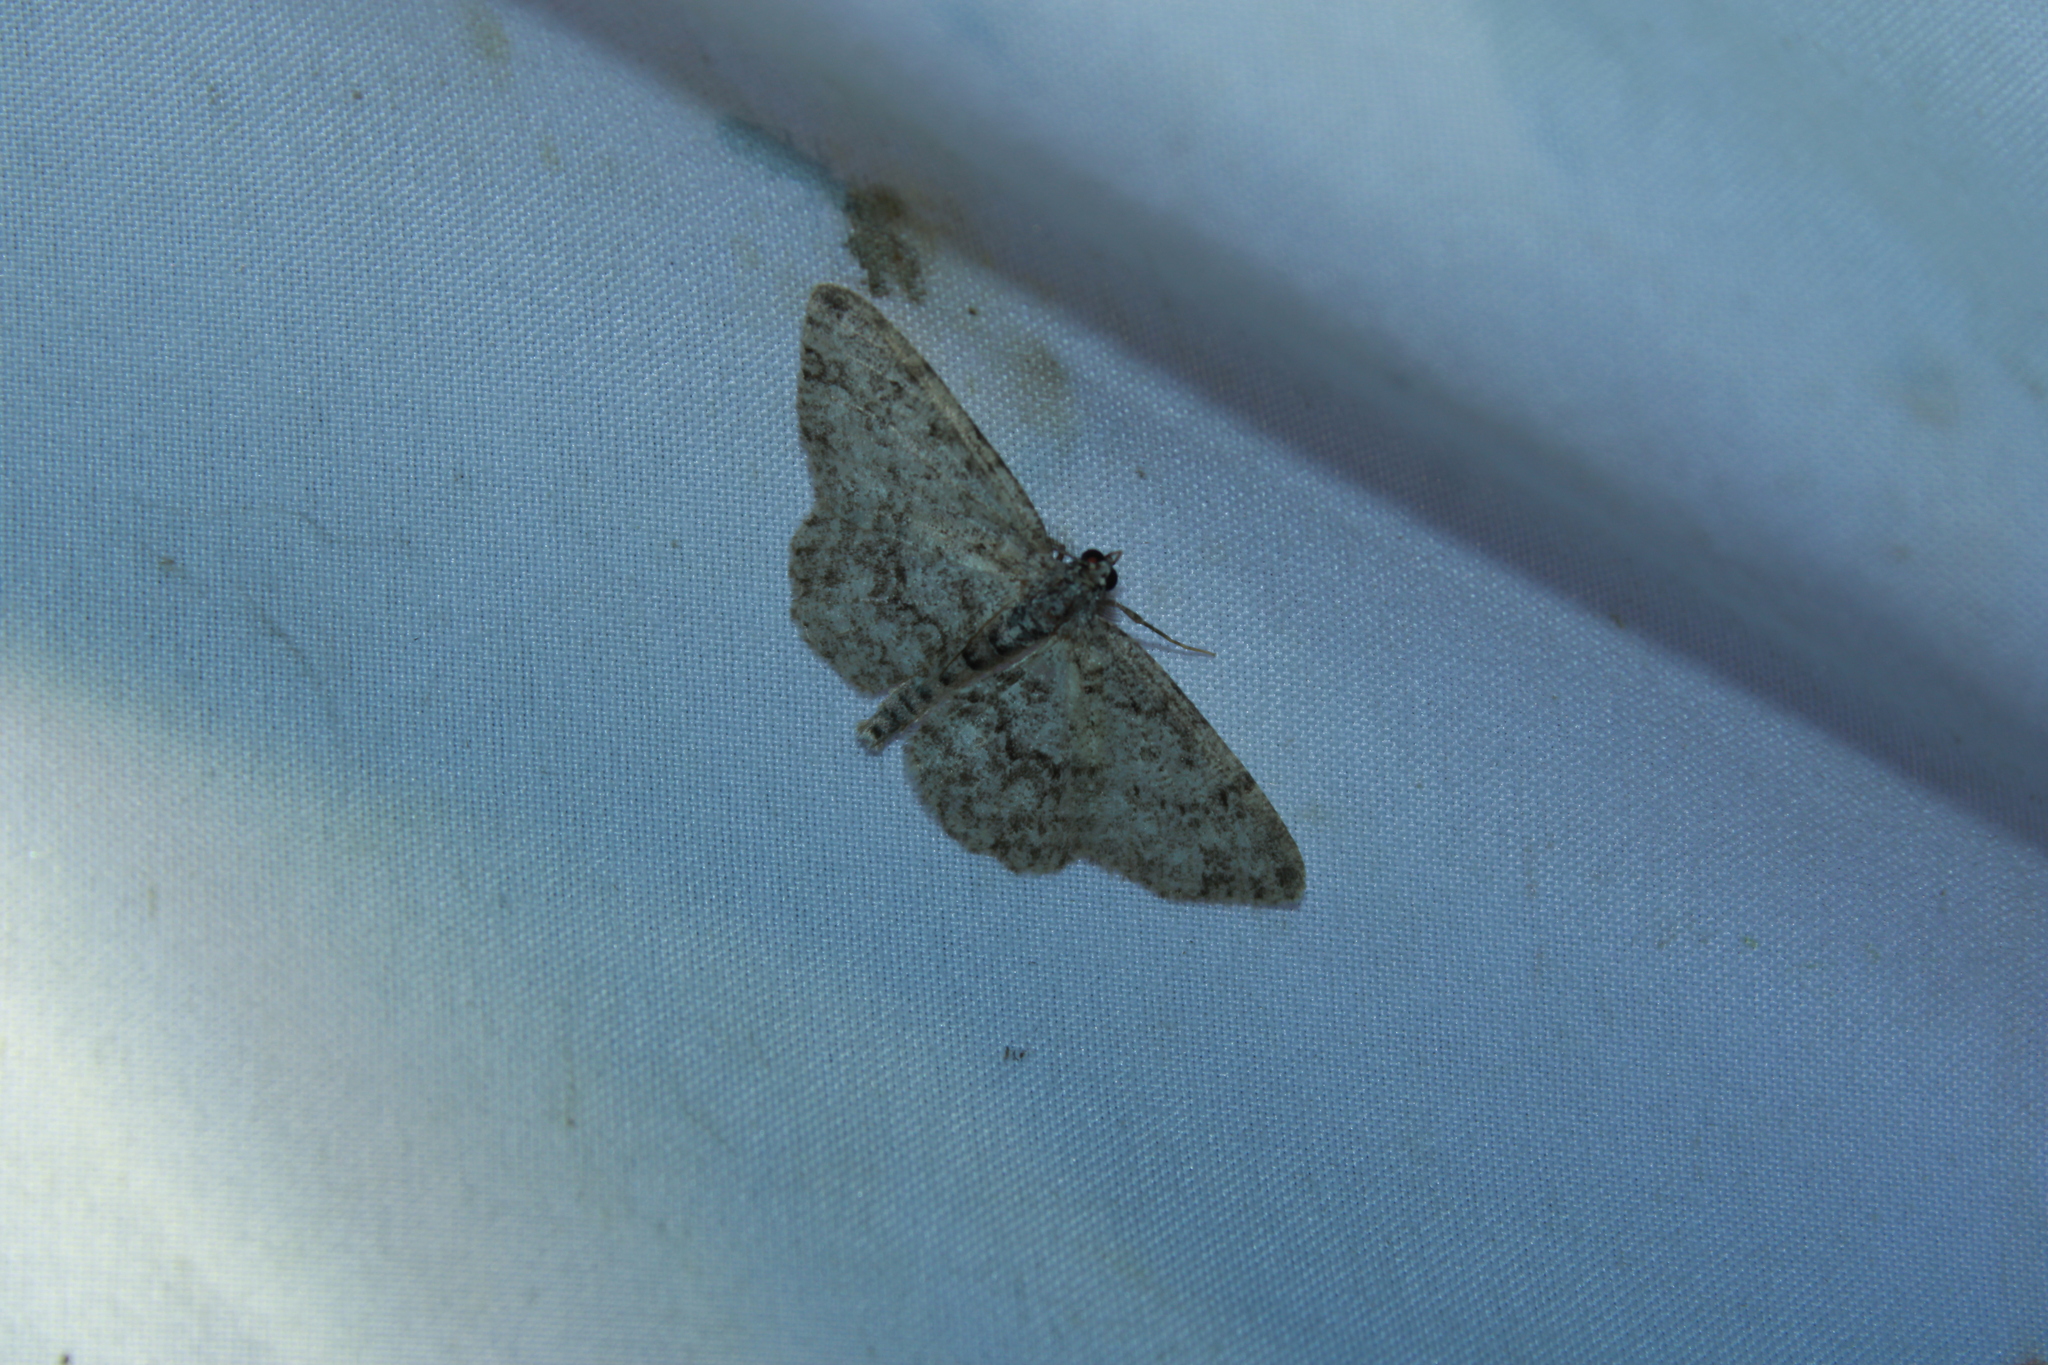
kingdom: Animalia
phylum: Arthropoda
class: Insecta
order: Lepidoptera
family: Geometridae
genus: Protoboarmia
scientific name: Protoboarmia porcelaria
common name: Porcelain gray
